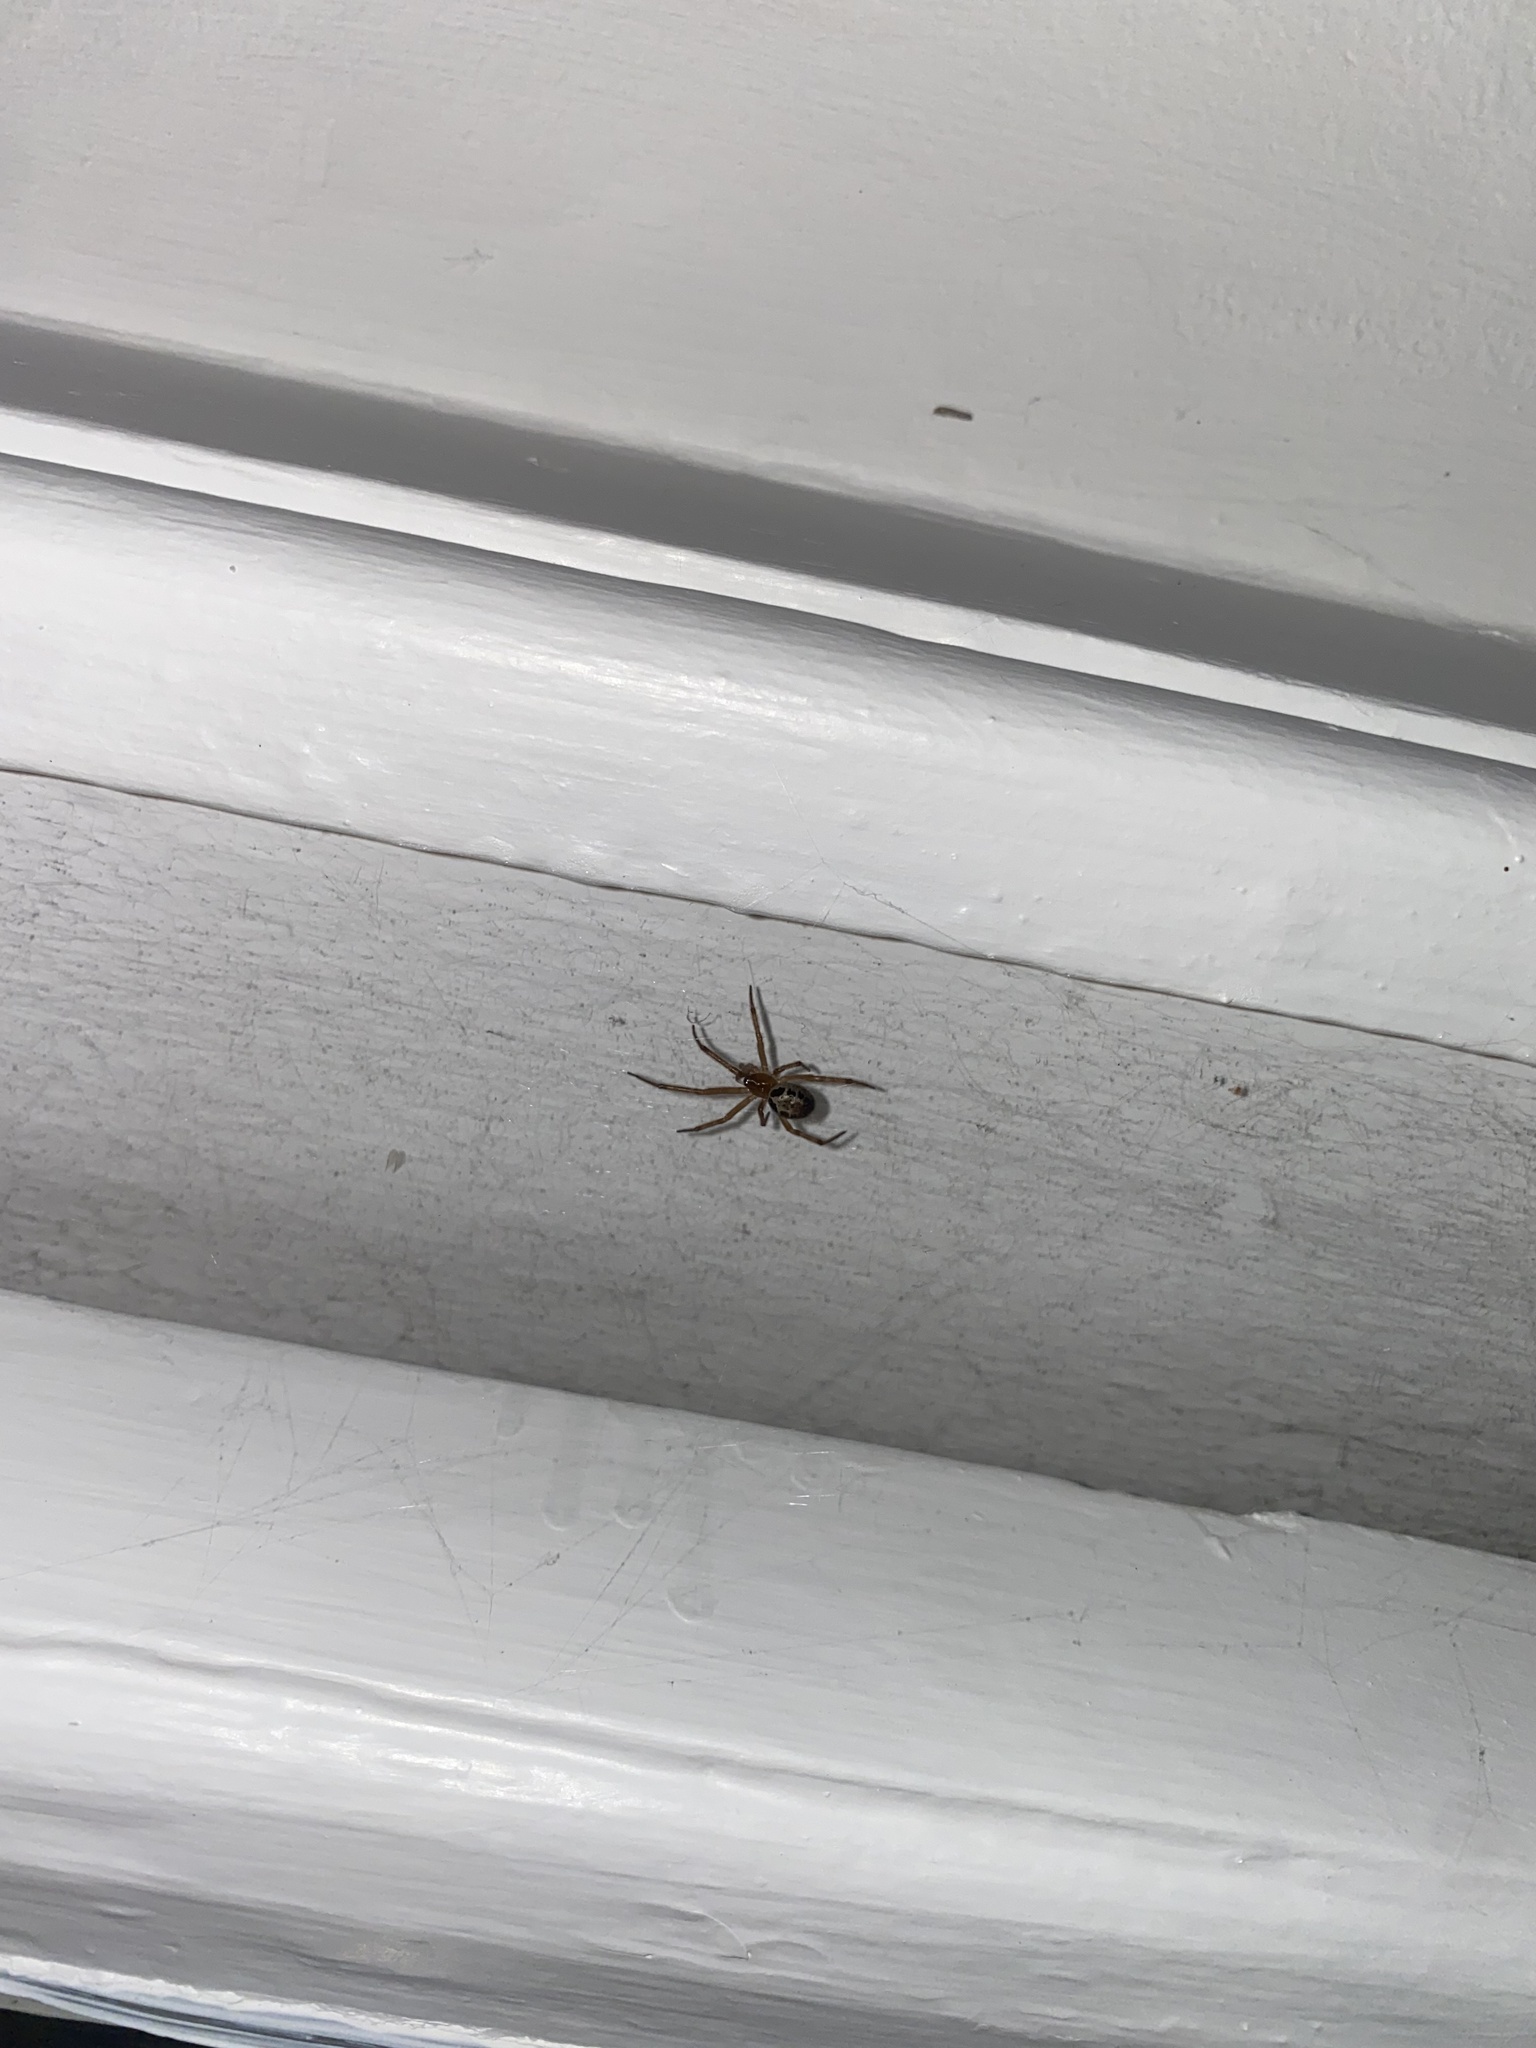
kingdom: Animalia
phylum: Arthropoda
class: Arachnida
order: Araneae
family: Theridiidae
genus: Steatoda
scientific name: Steatoda nobilis
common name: Cobweb weaver
